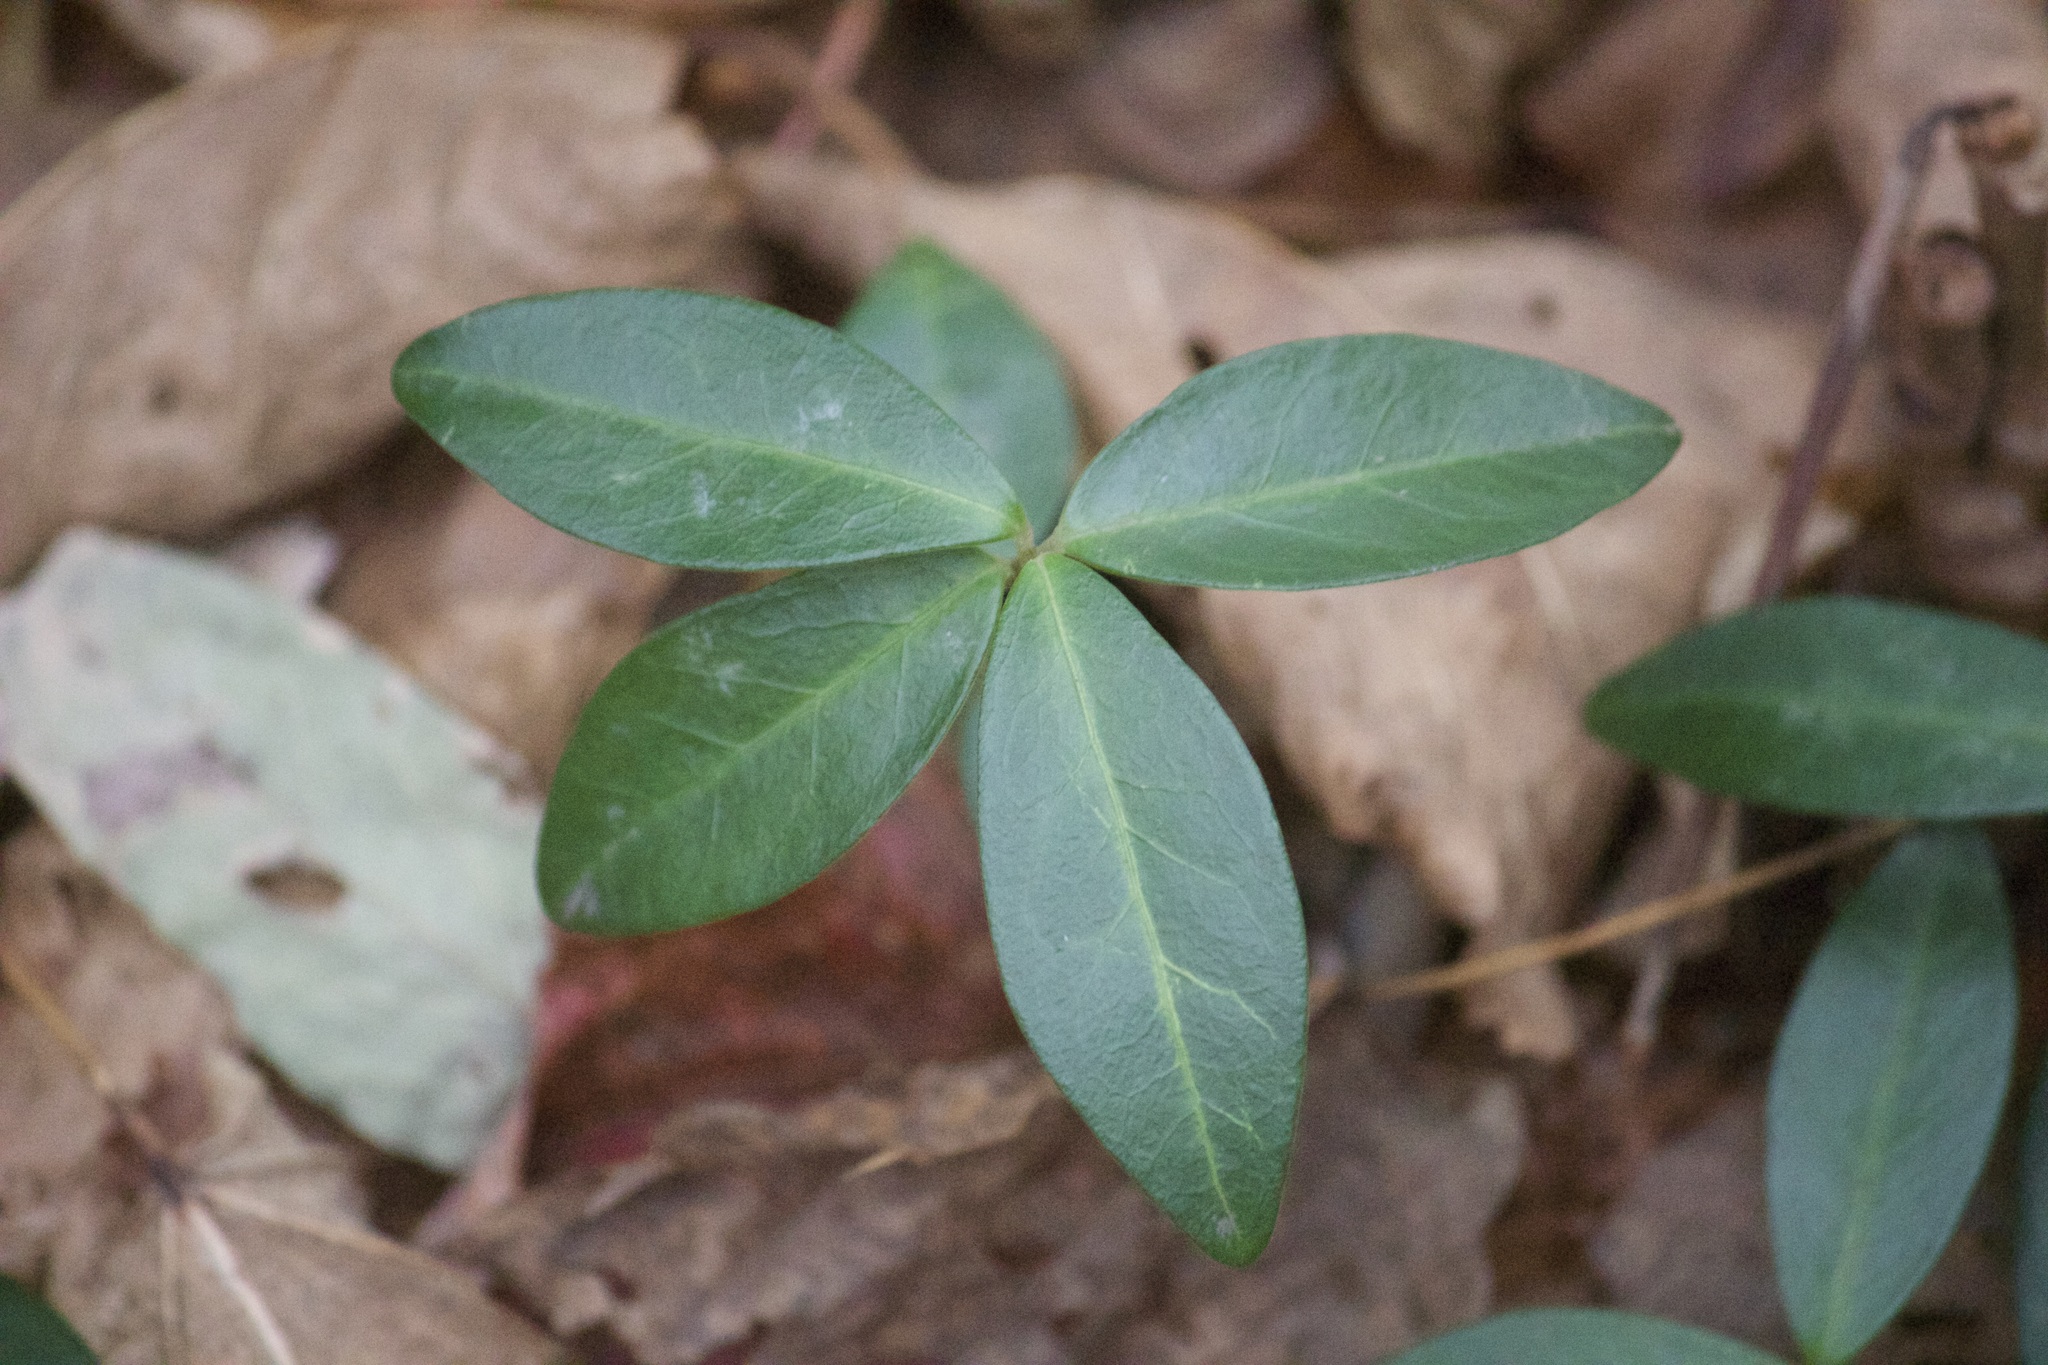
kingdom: Plantae
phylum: Tracheophyta
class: Magnoliopsida
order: Gentianales
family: Apocynaceae
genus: Vinca
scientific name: Vinca minor
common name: Lesser periwinkle
